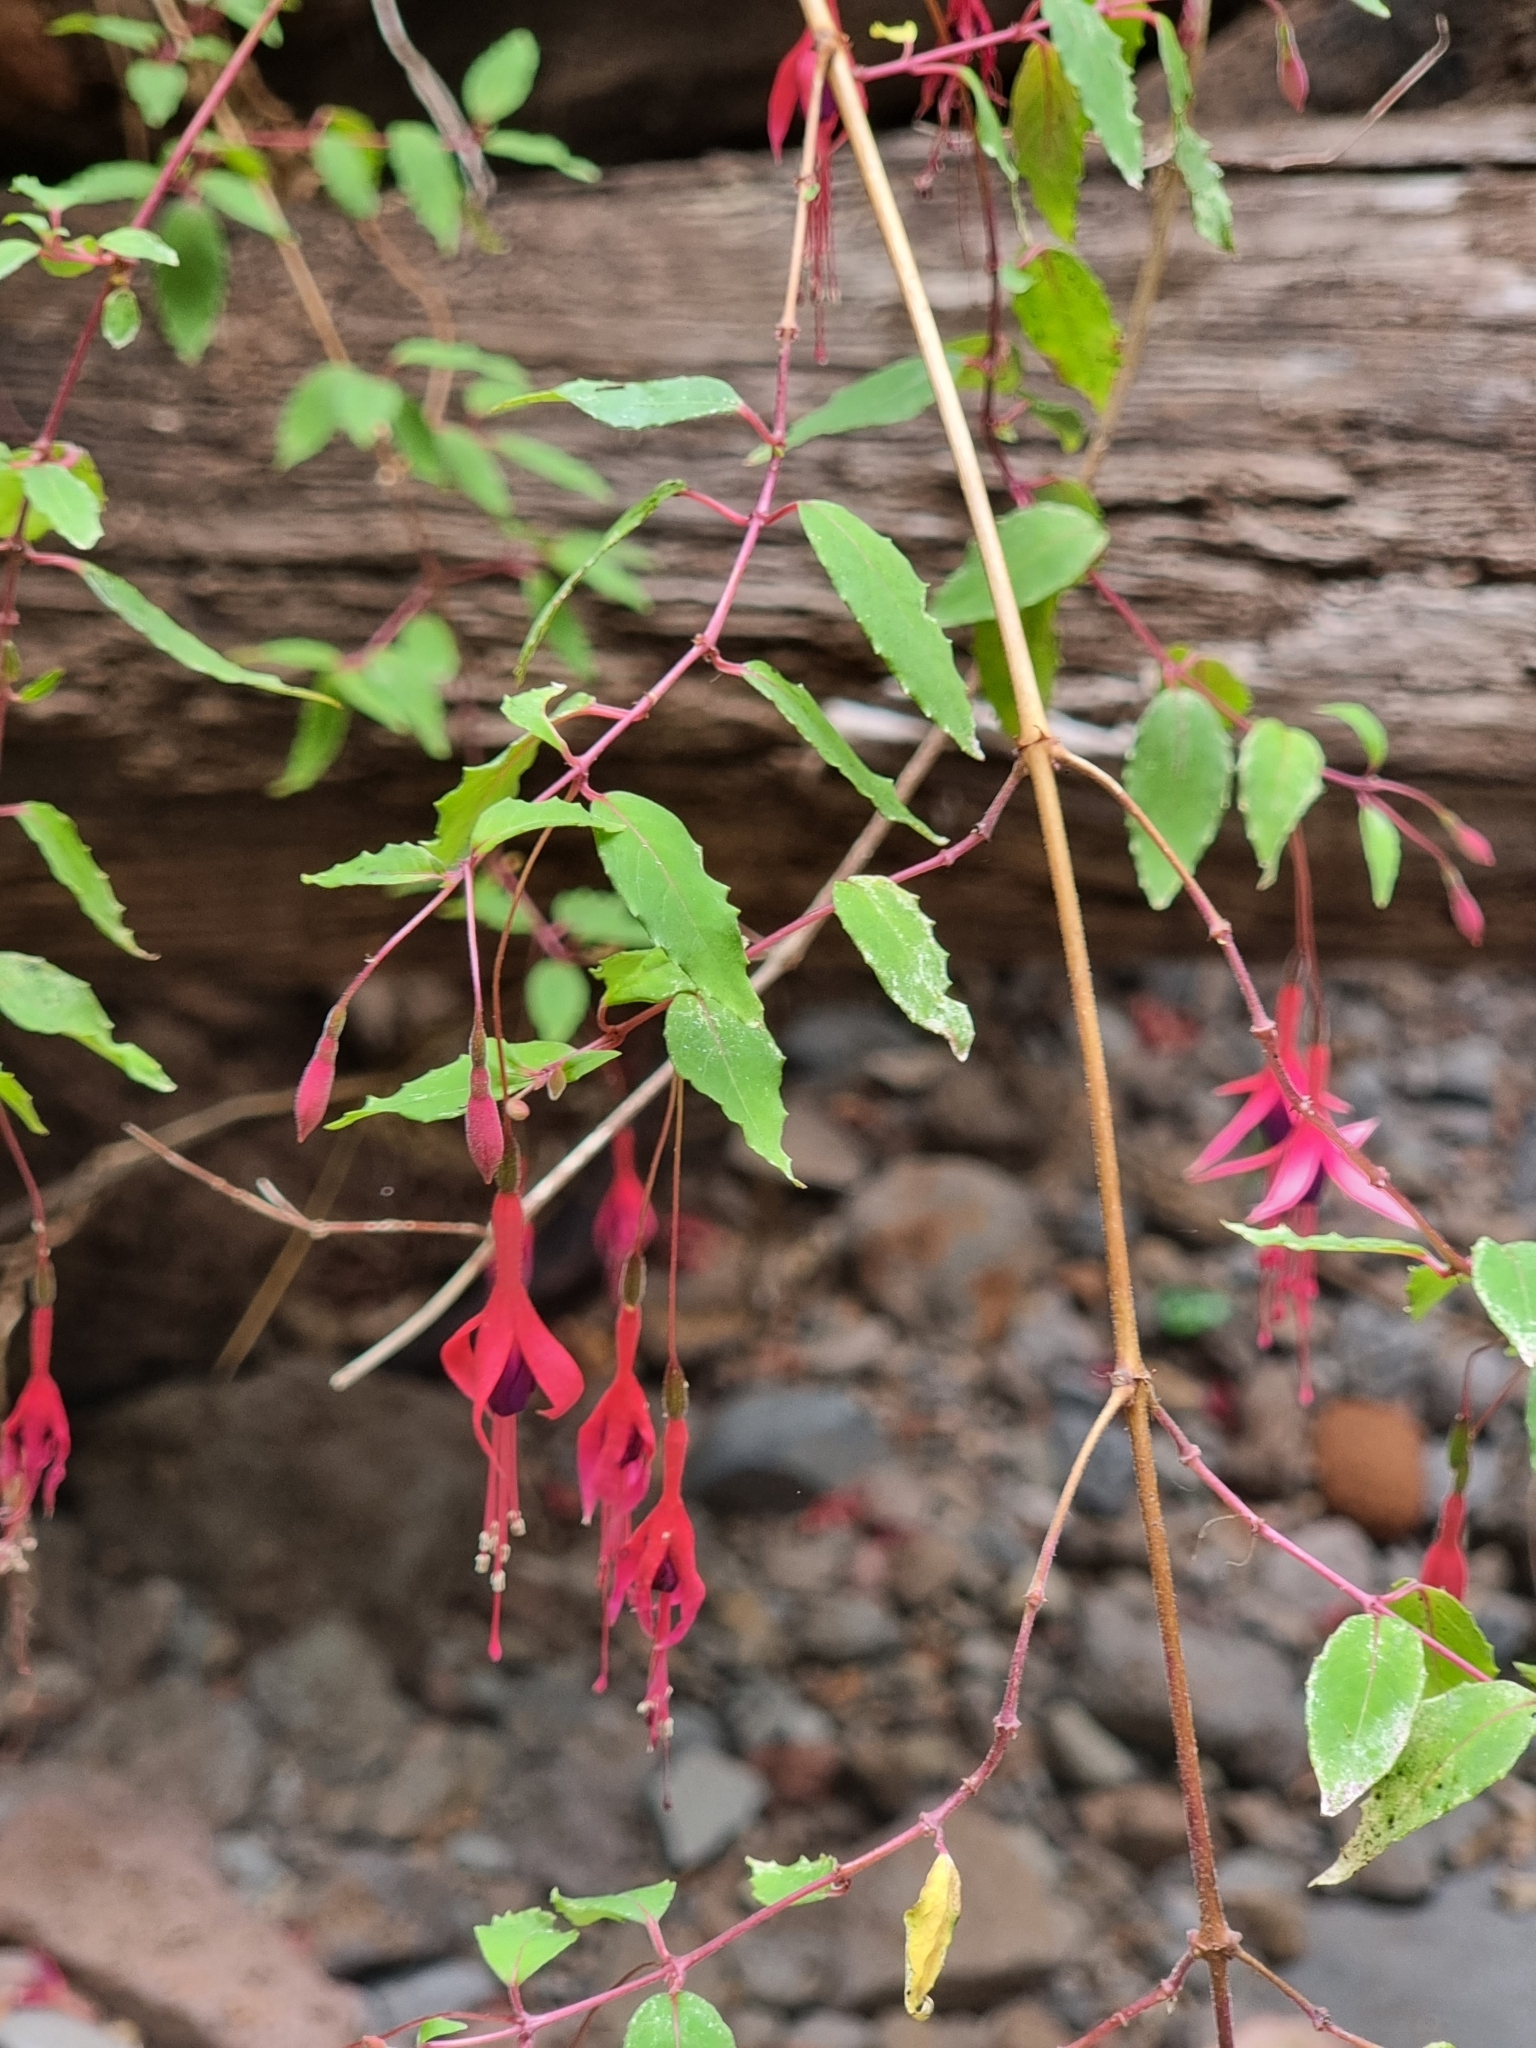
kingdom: Plantae
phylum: Tracheophyta
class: Magnoliopsida
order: Myrtales
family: Onagraceae
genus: Fuchsia
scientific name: Fuchsia magellanica
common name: Hardy fuchsia
